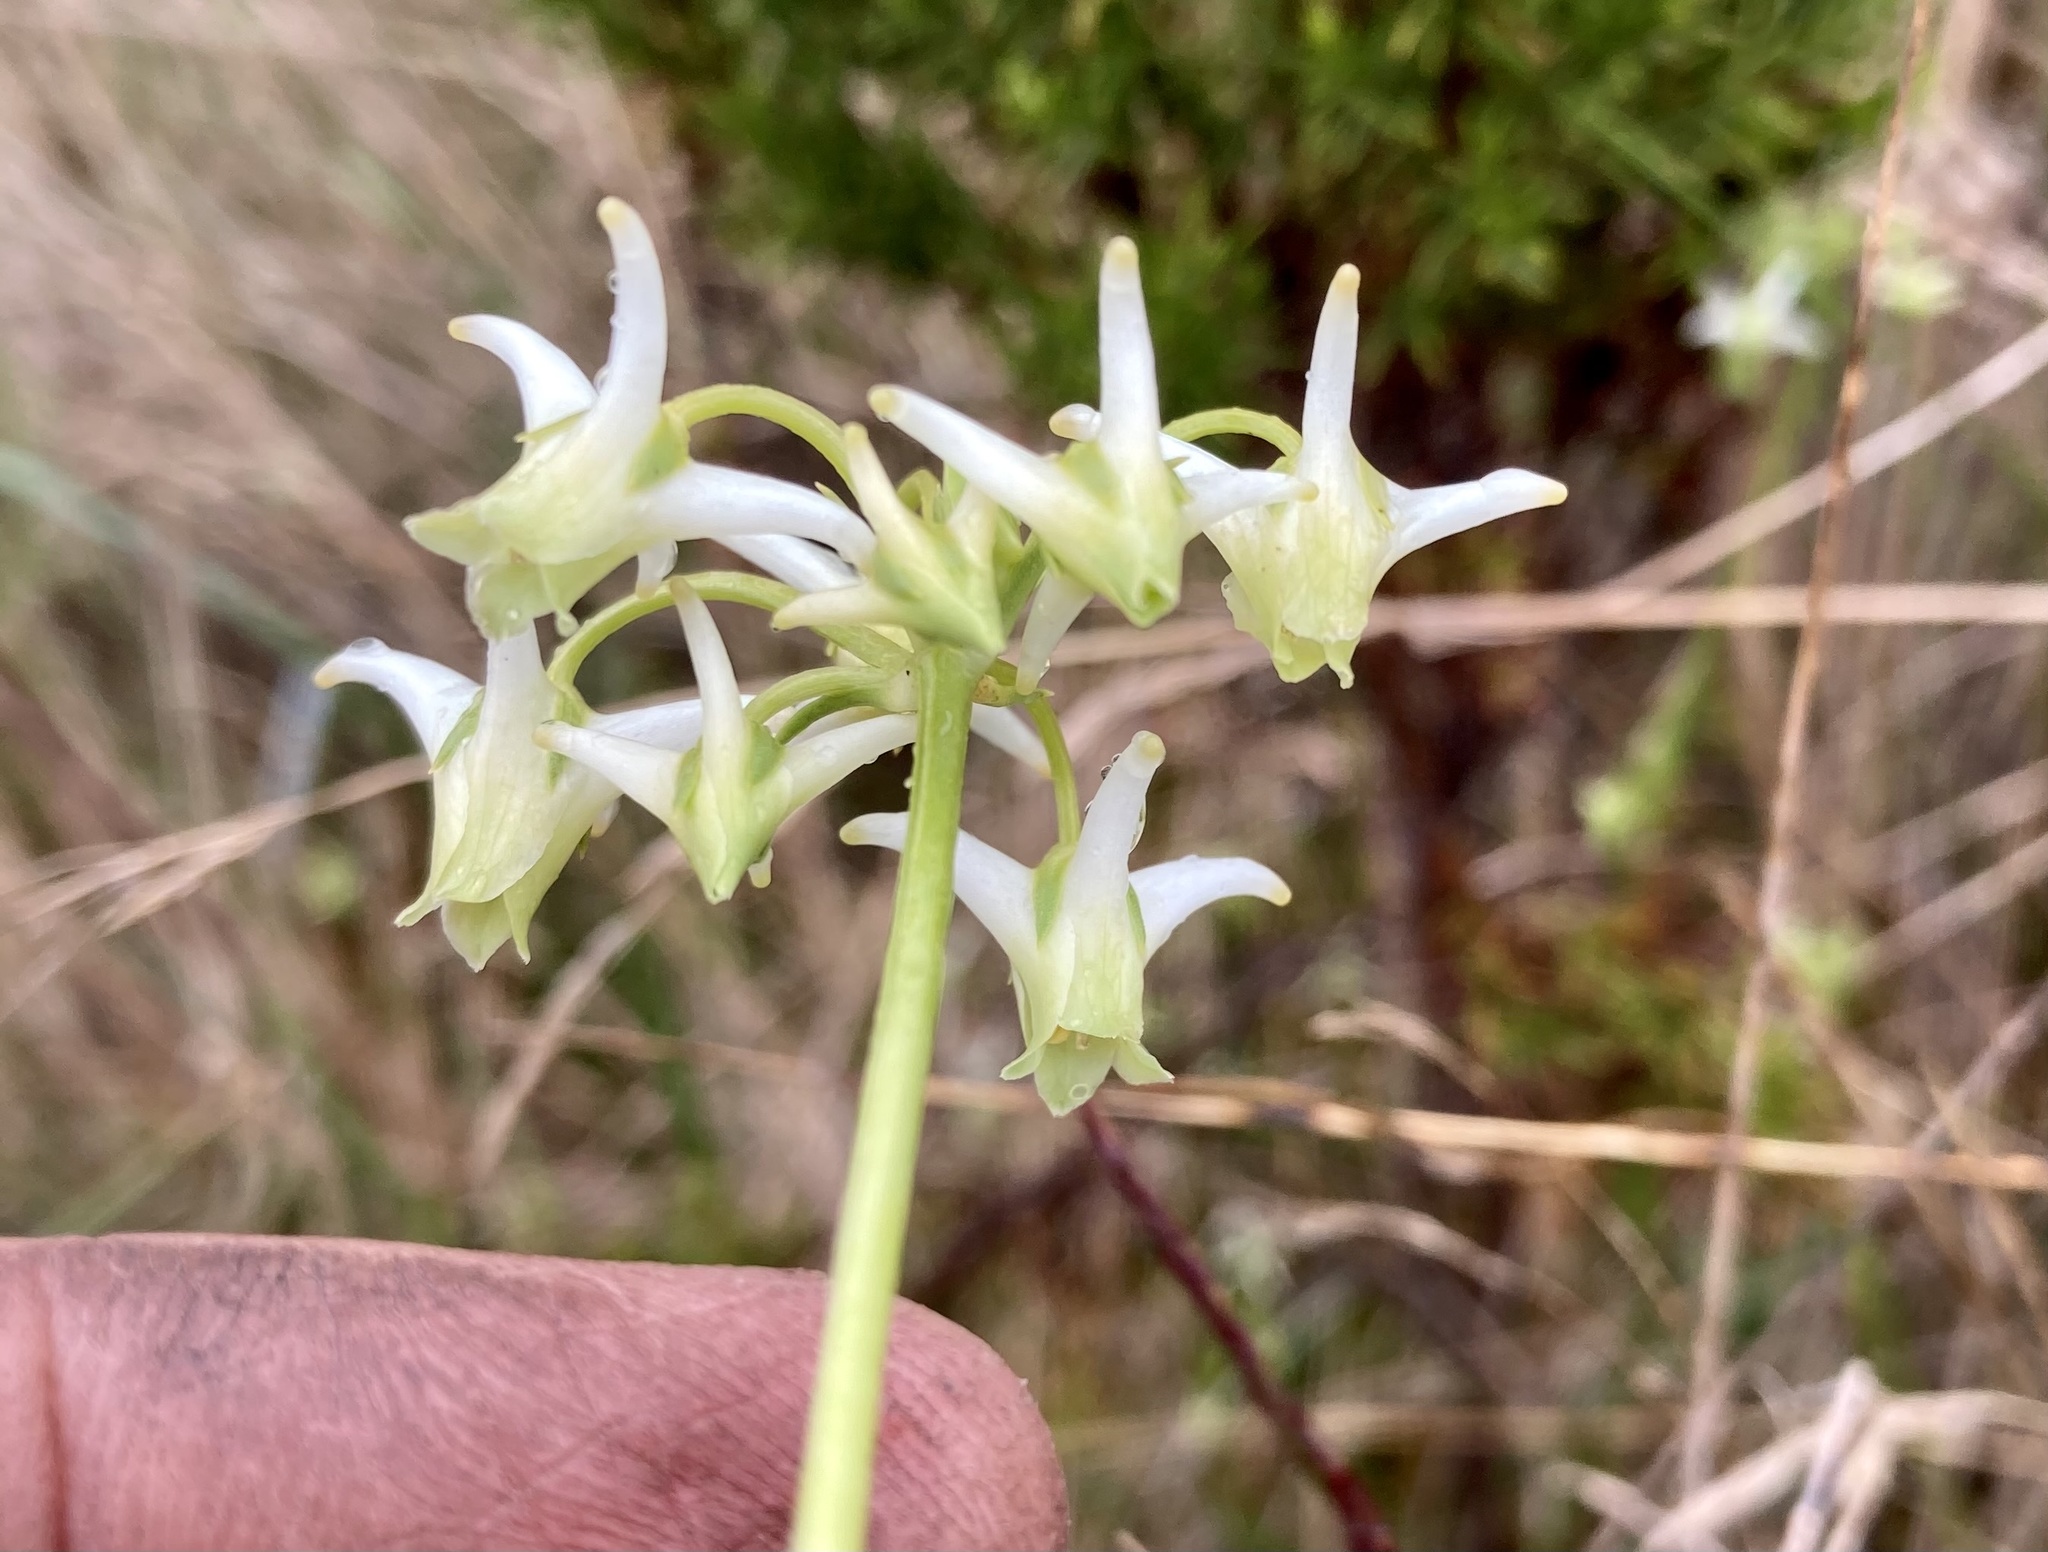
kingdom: Plantae
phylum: Tracheophyta
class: Magnoliopsida
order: Gentianales
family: Gentianaceae
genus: Halenia
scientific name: Halenia asclepiadea
